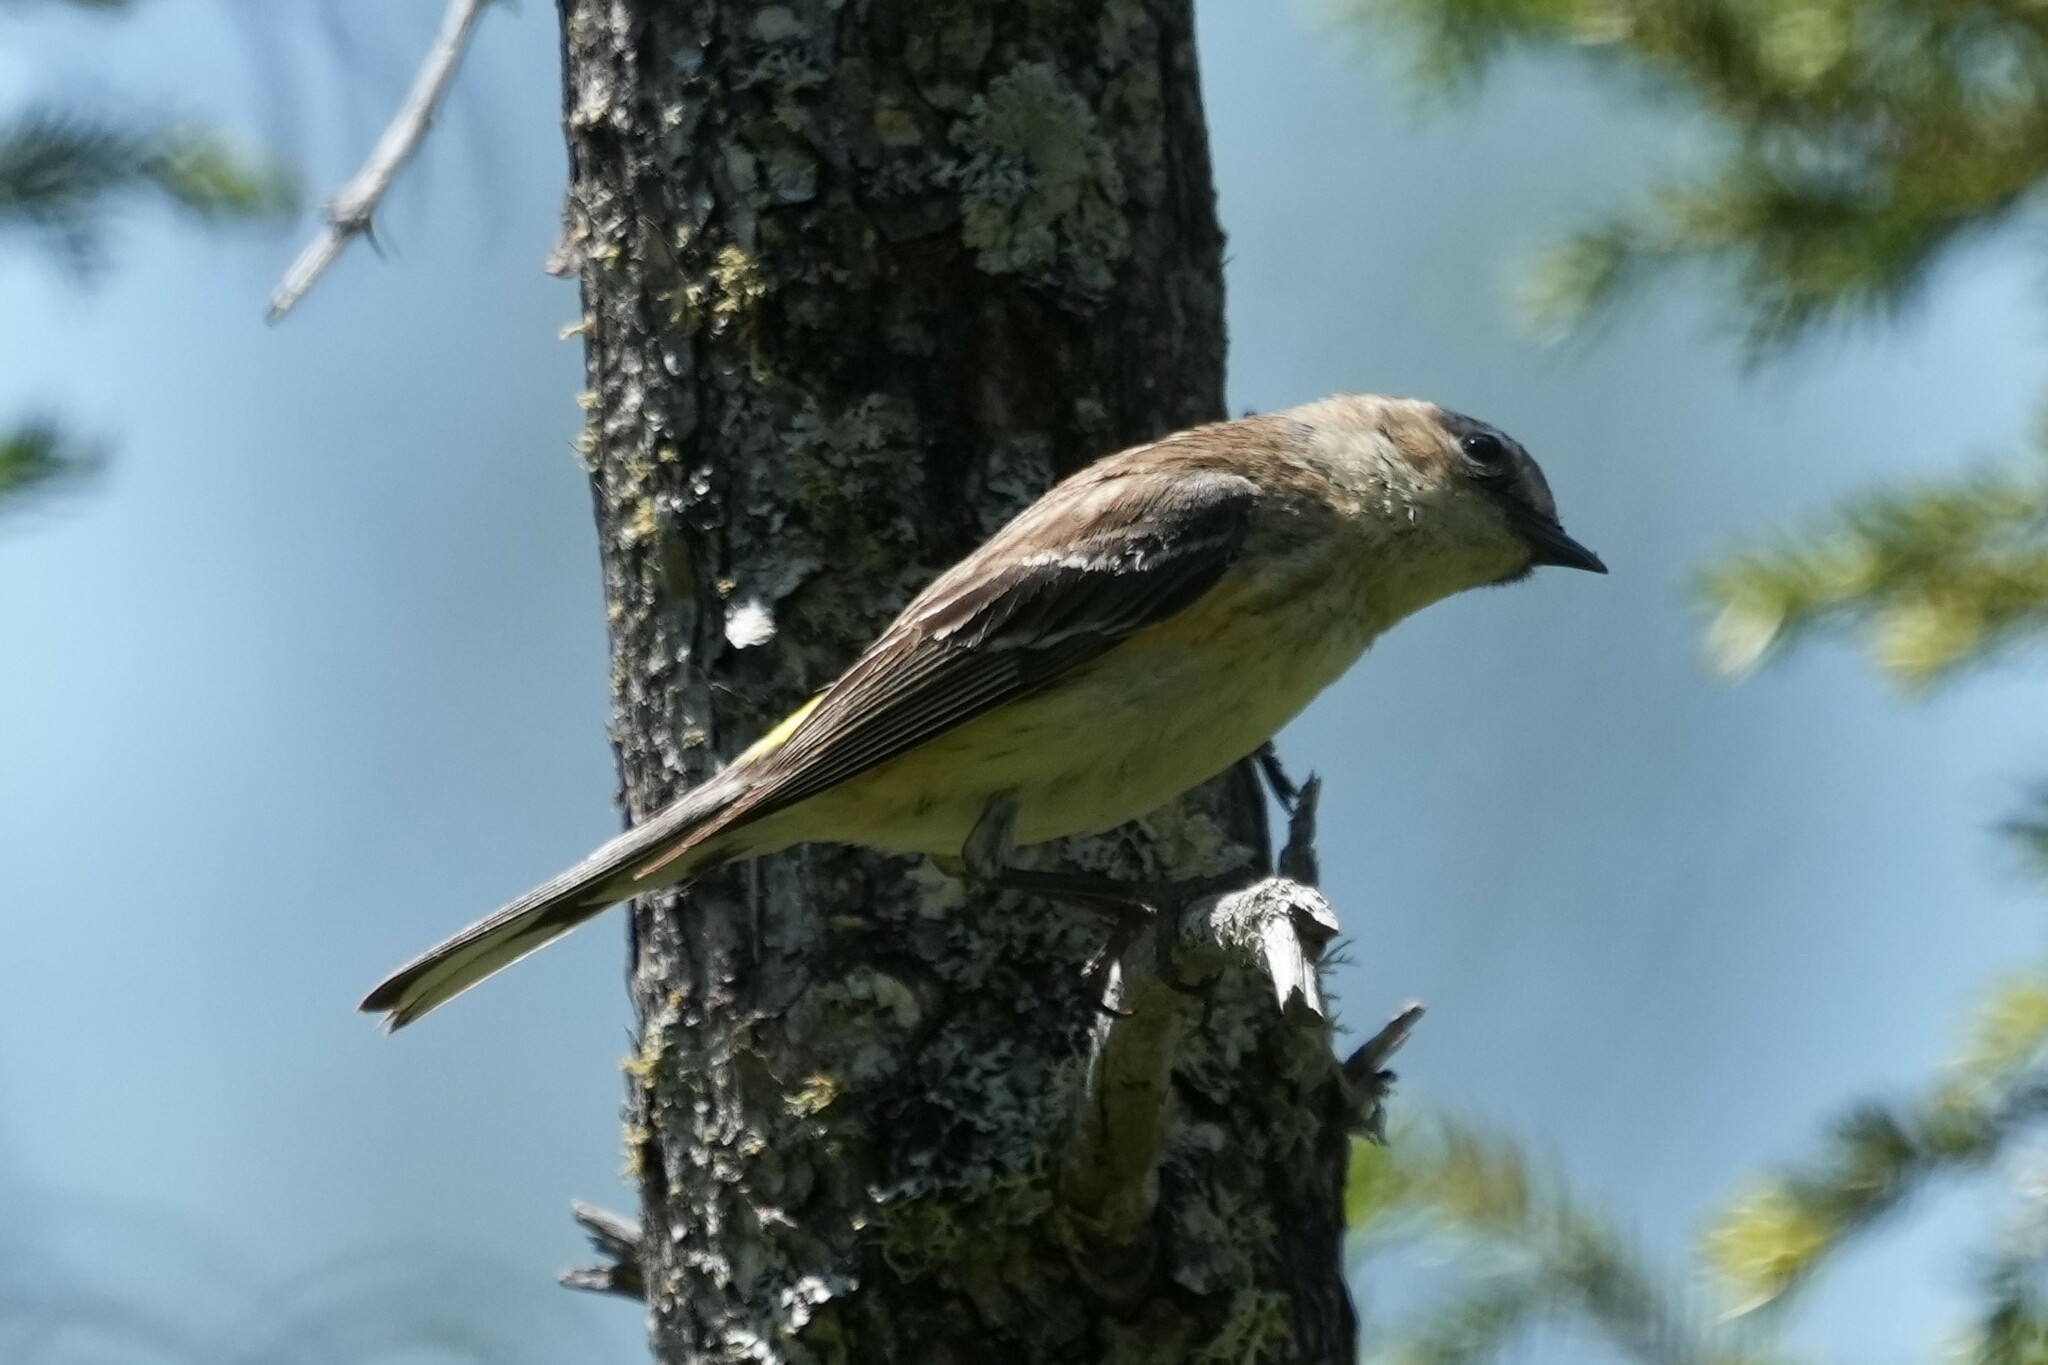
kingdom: Animalia
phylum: Chordata
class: Aves
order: Passeriformes
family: Parulidae
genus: Setophaga
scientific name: Setophaga coronata
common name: Myrtle warbler
